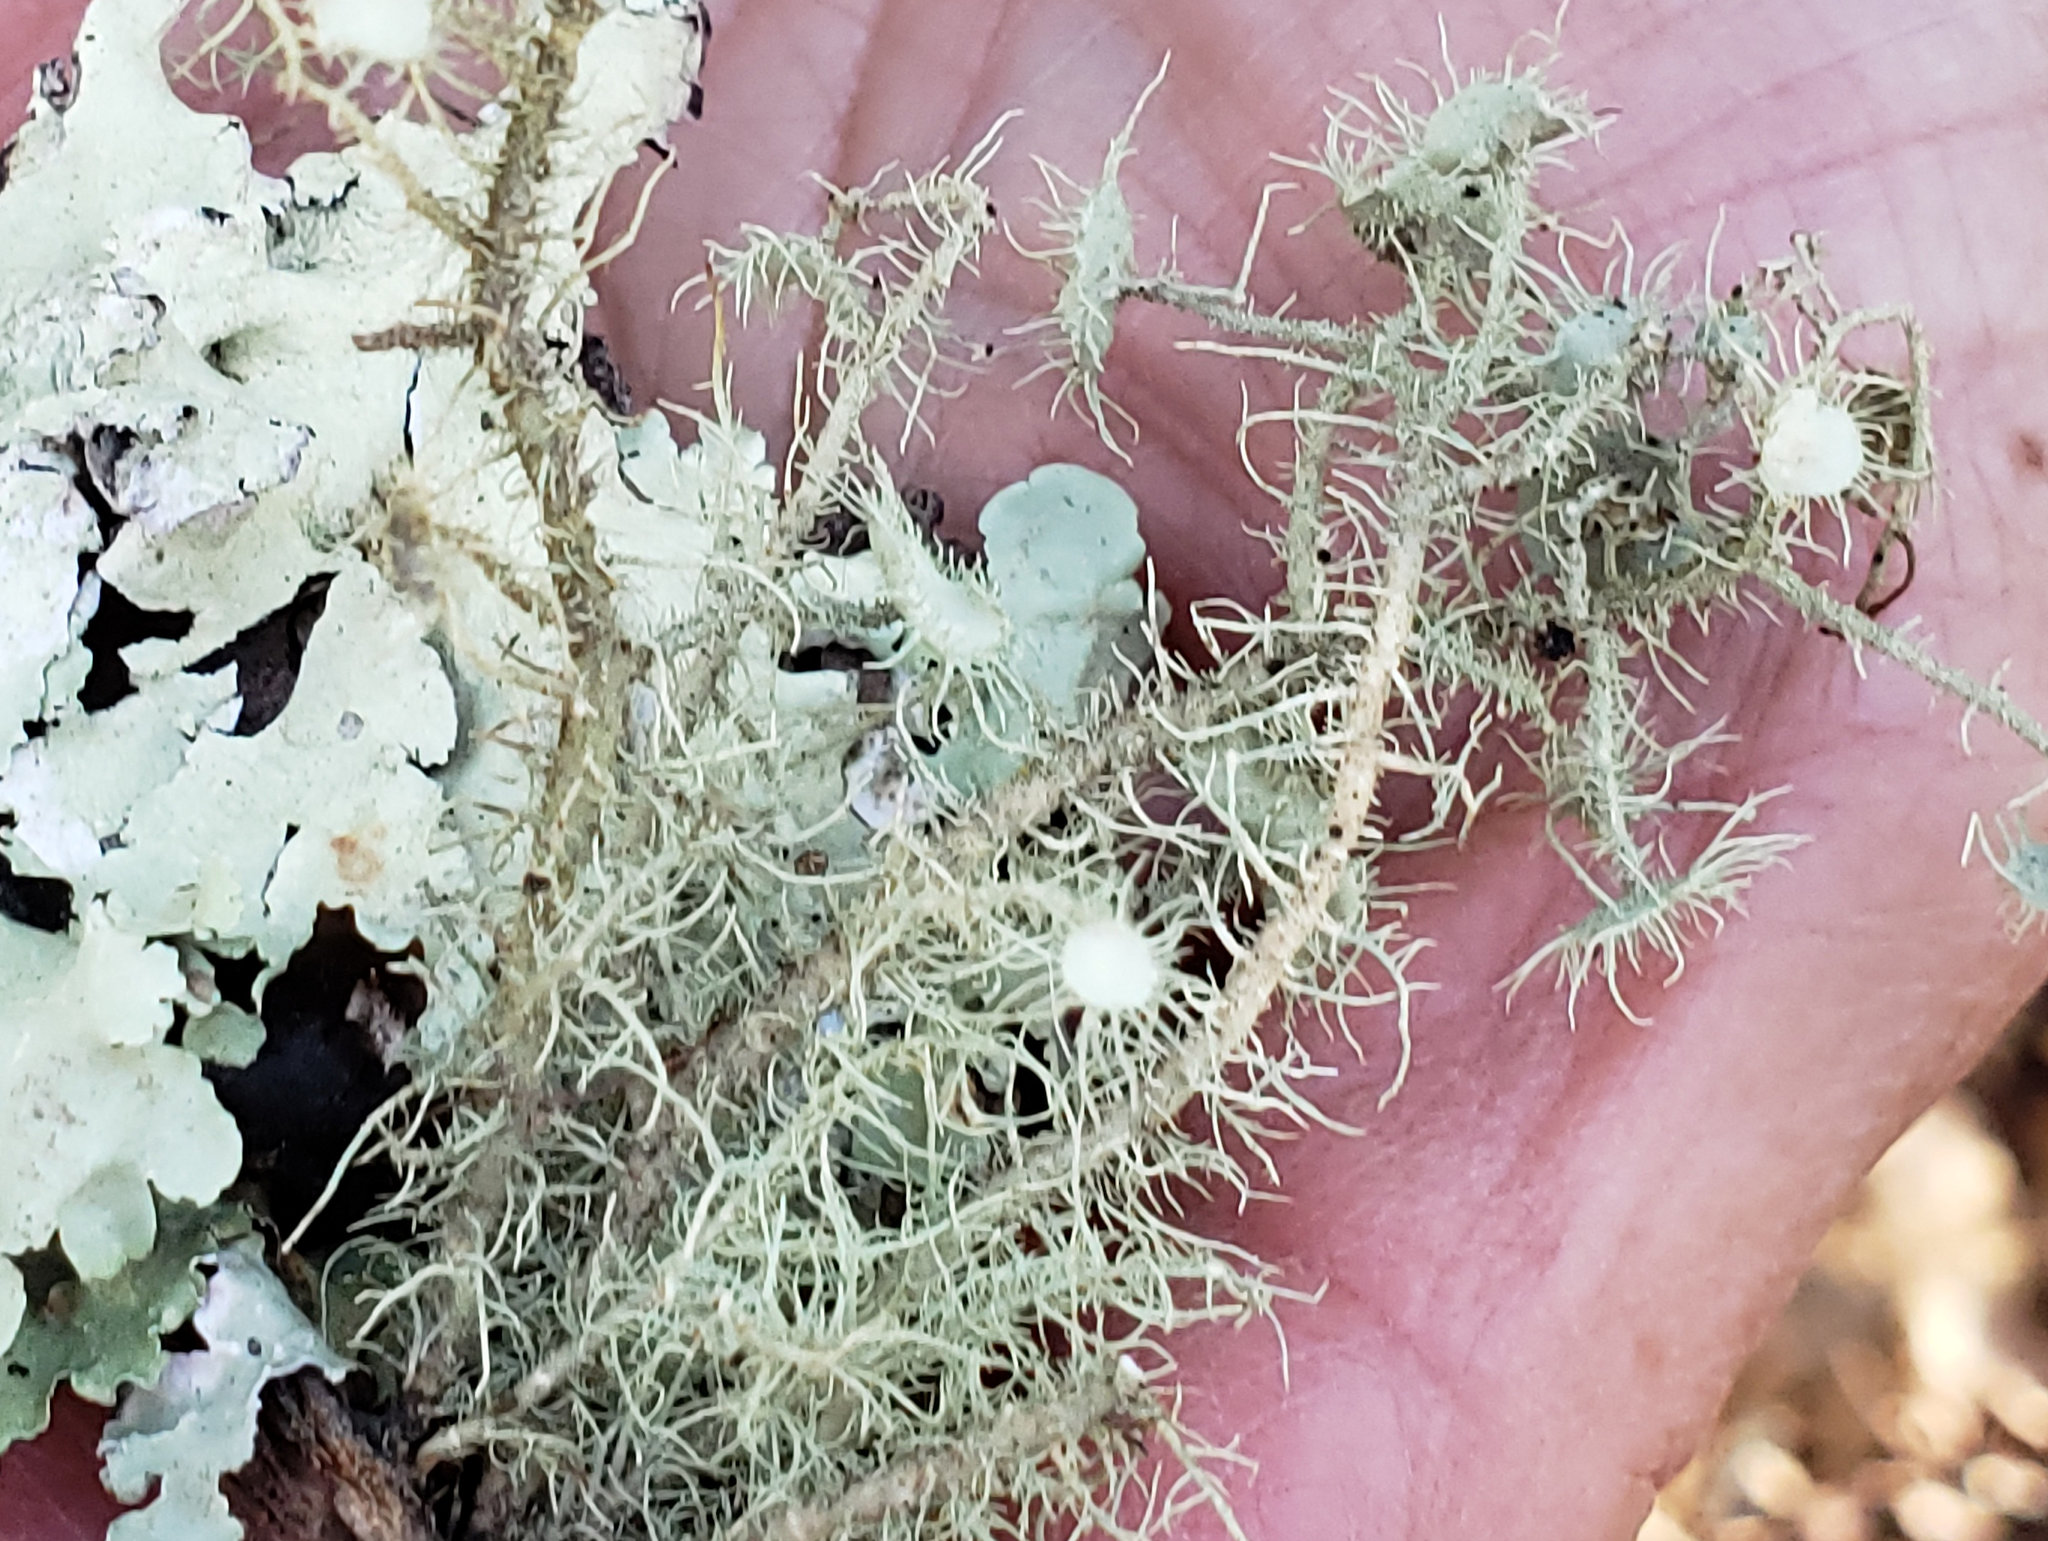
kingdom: Fungi
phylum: Ascomycota
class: Lecanoromycetes
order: Lecanorales
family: Parmeliaceae
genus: Usnea
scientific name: Usnea intermedia
